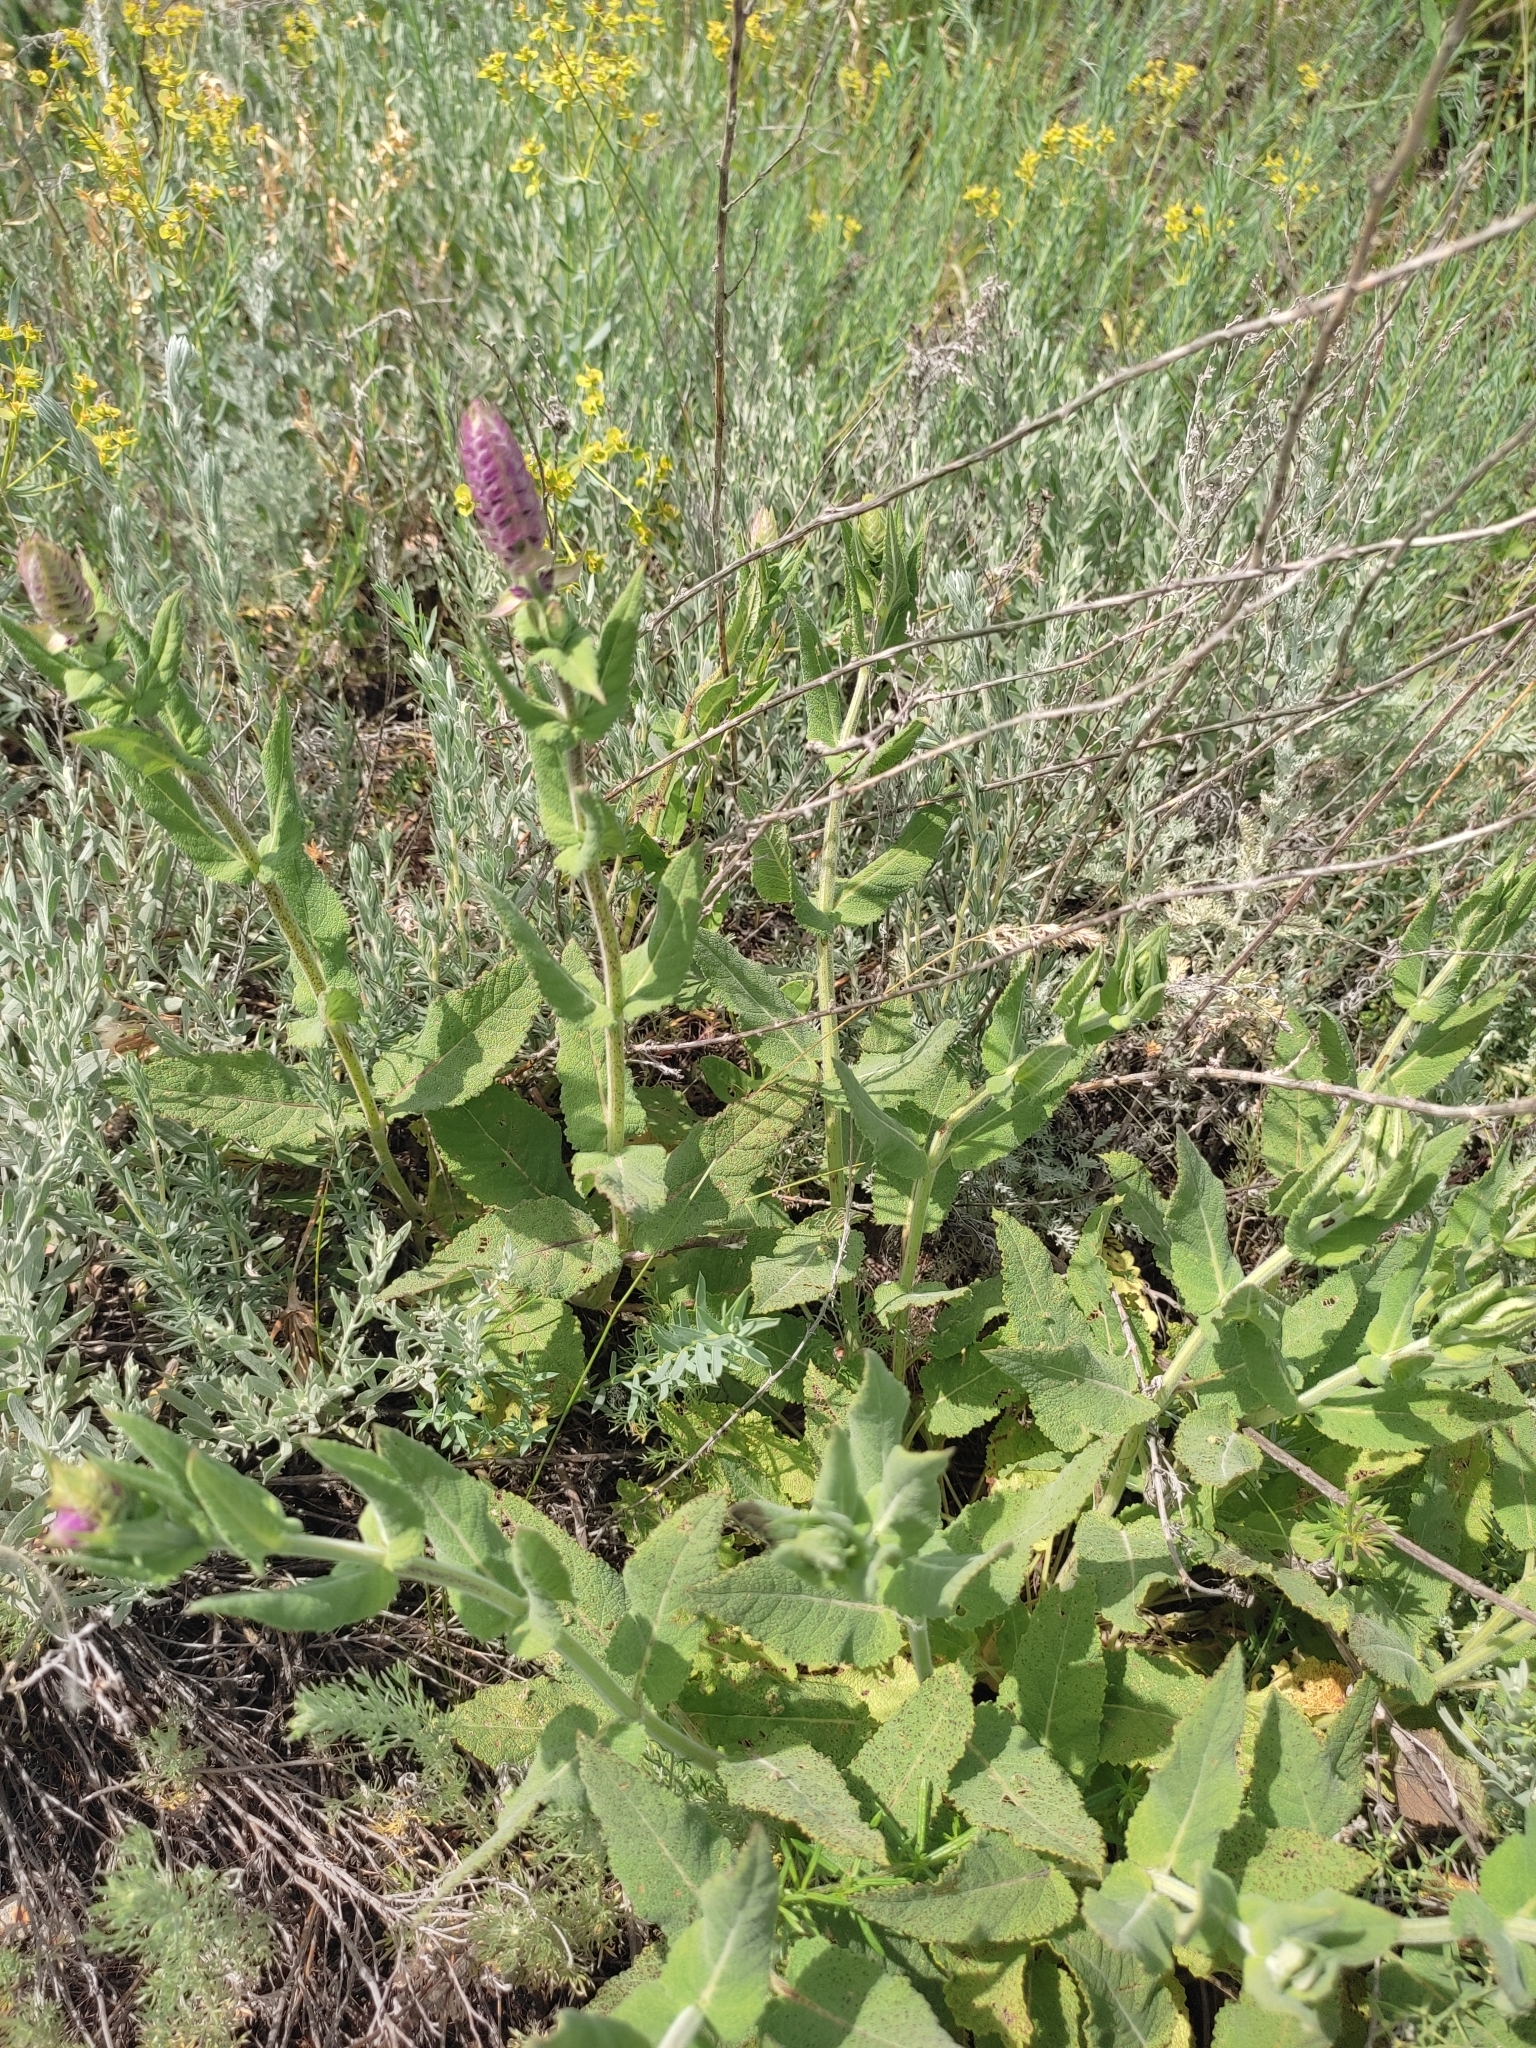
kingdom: Plantae
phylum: Tracheophyta
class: Magnoliopsida
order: Lamiales
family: Lamiaceae
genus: Salvia
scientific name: Salvia nemorosa
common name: Balkan clary
